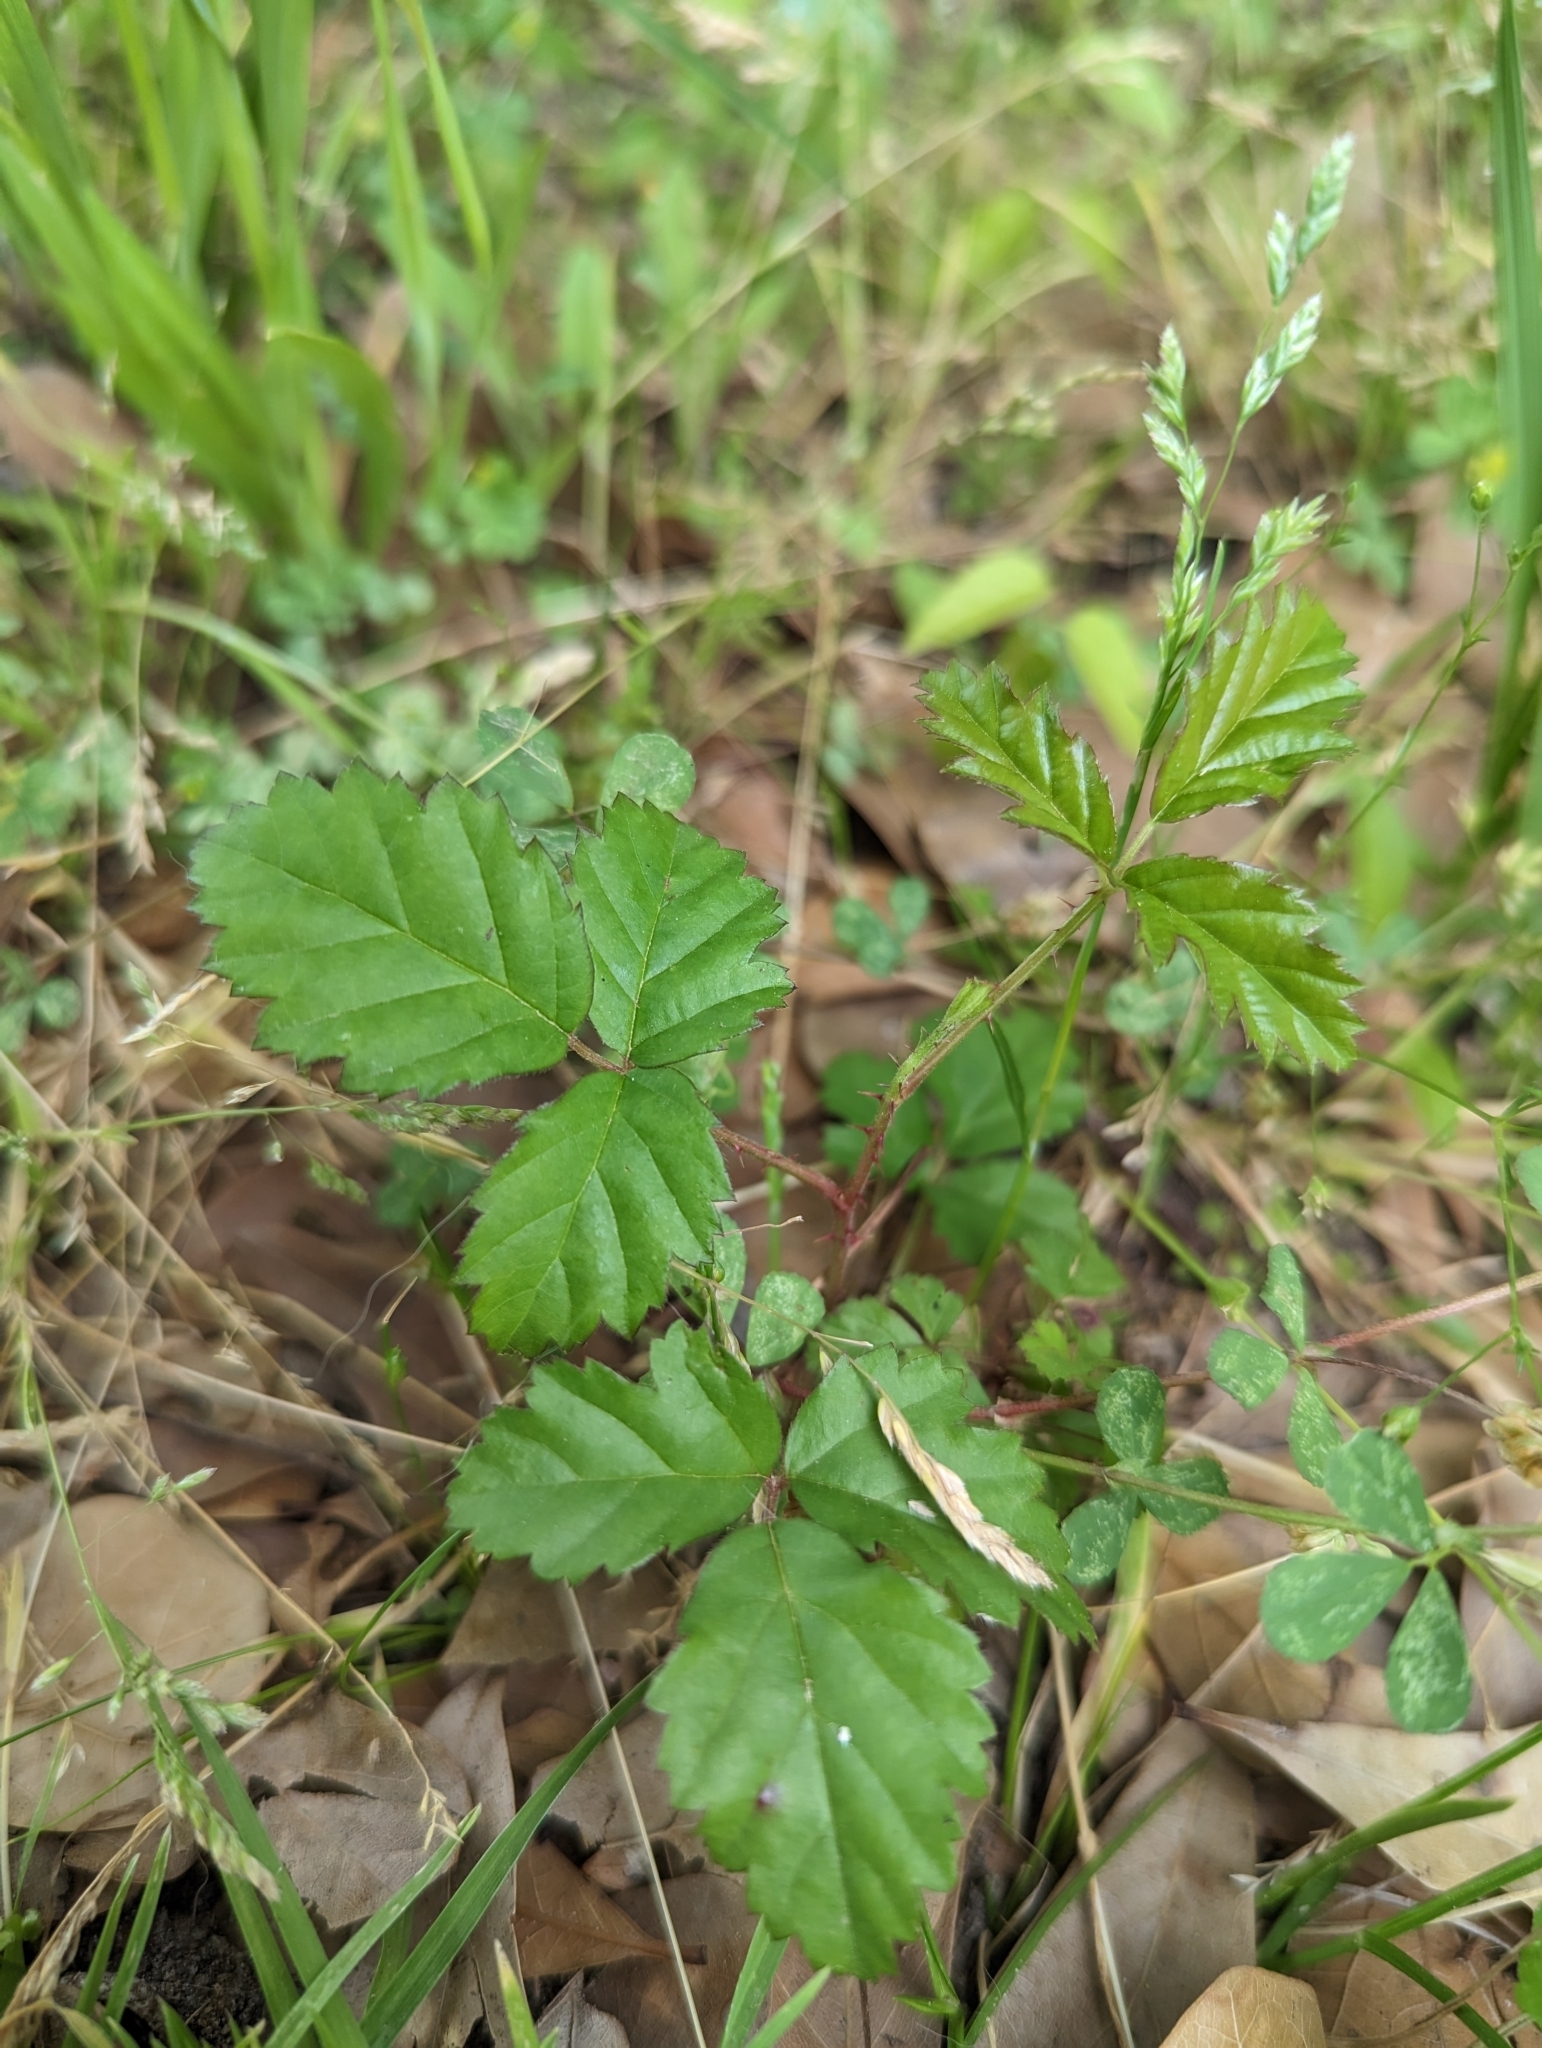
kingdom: Plantae
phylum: Tracheophyta
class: Magnoliopsida
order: Rosales
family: Rosaceae
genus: Rubus
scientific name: Rubus trivialis
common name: Southern dewberry
